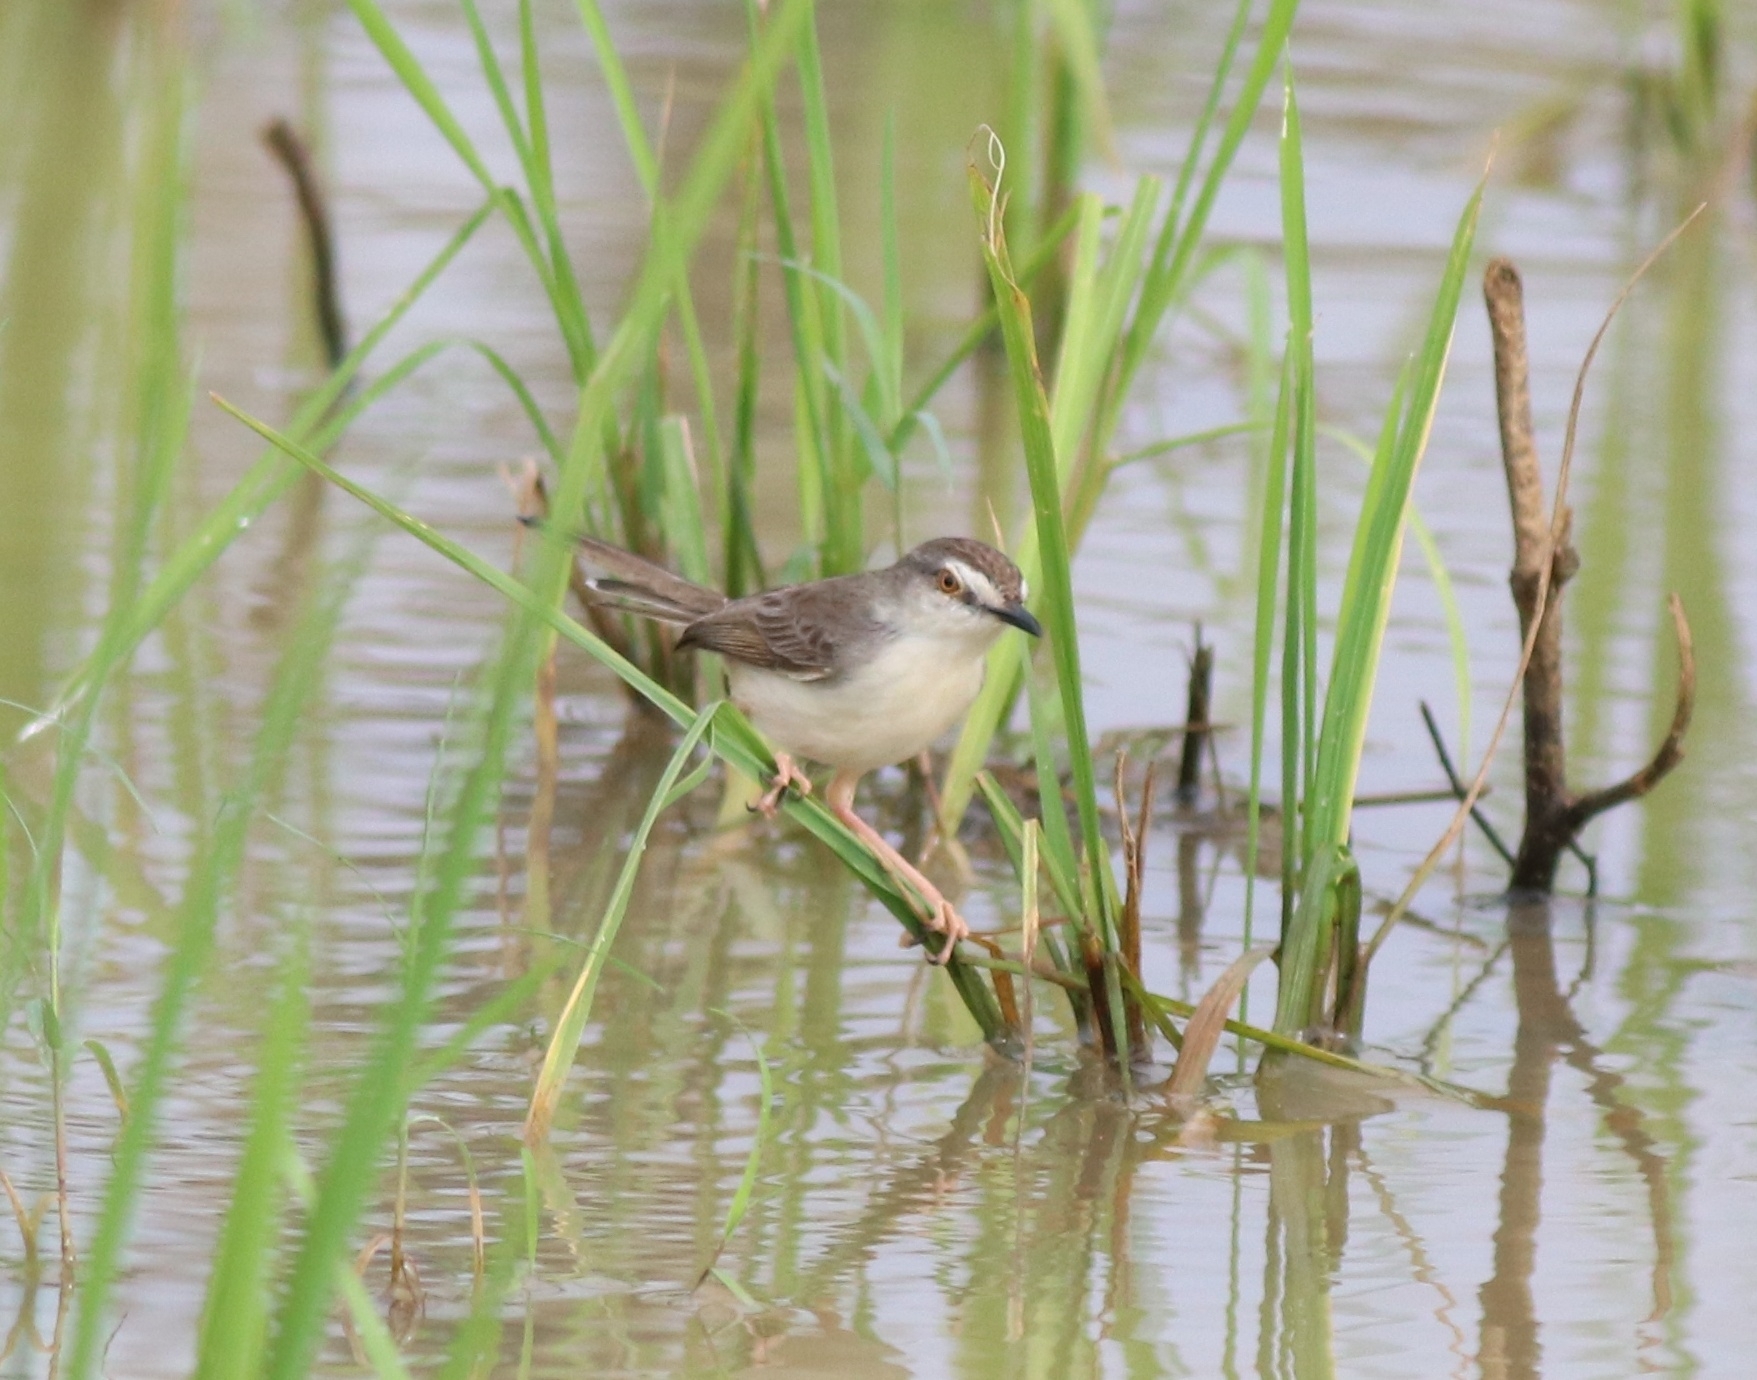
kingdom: Animalia
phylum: Chordata
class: Aves
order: Passeriformes
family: Cisticolidae
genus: Prinia
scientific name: Prinia inornata
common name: Plain prinia
